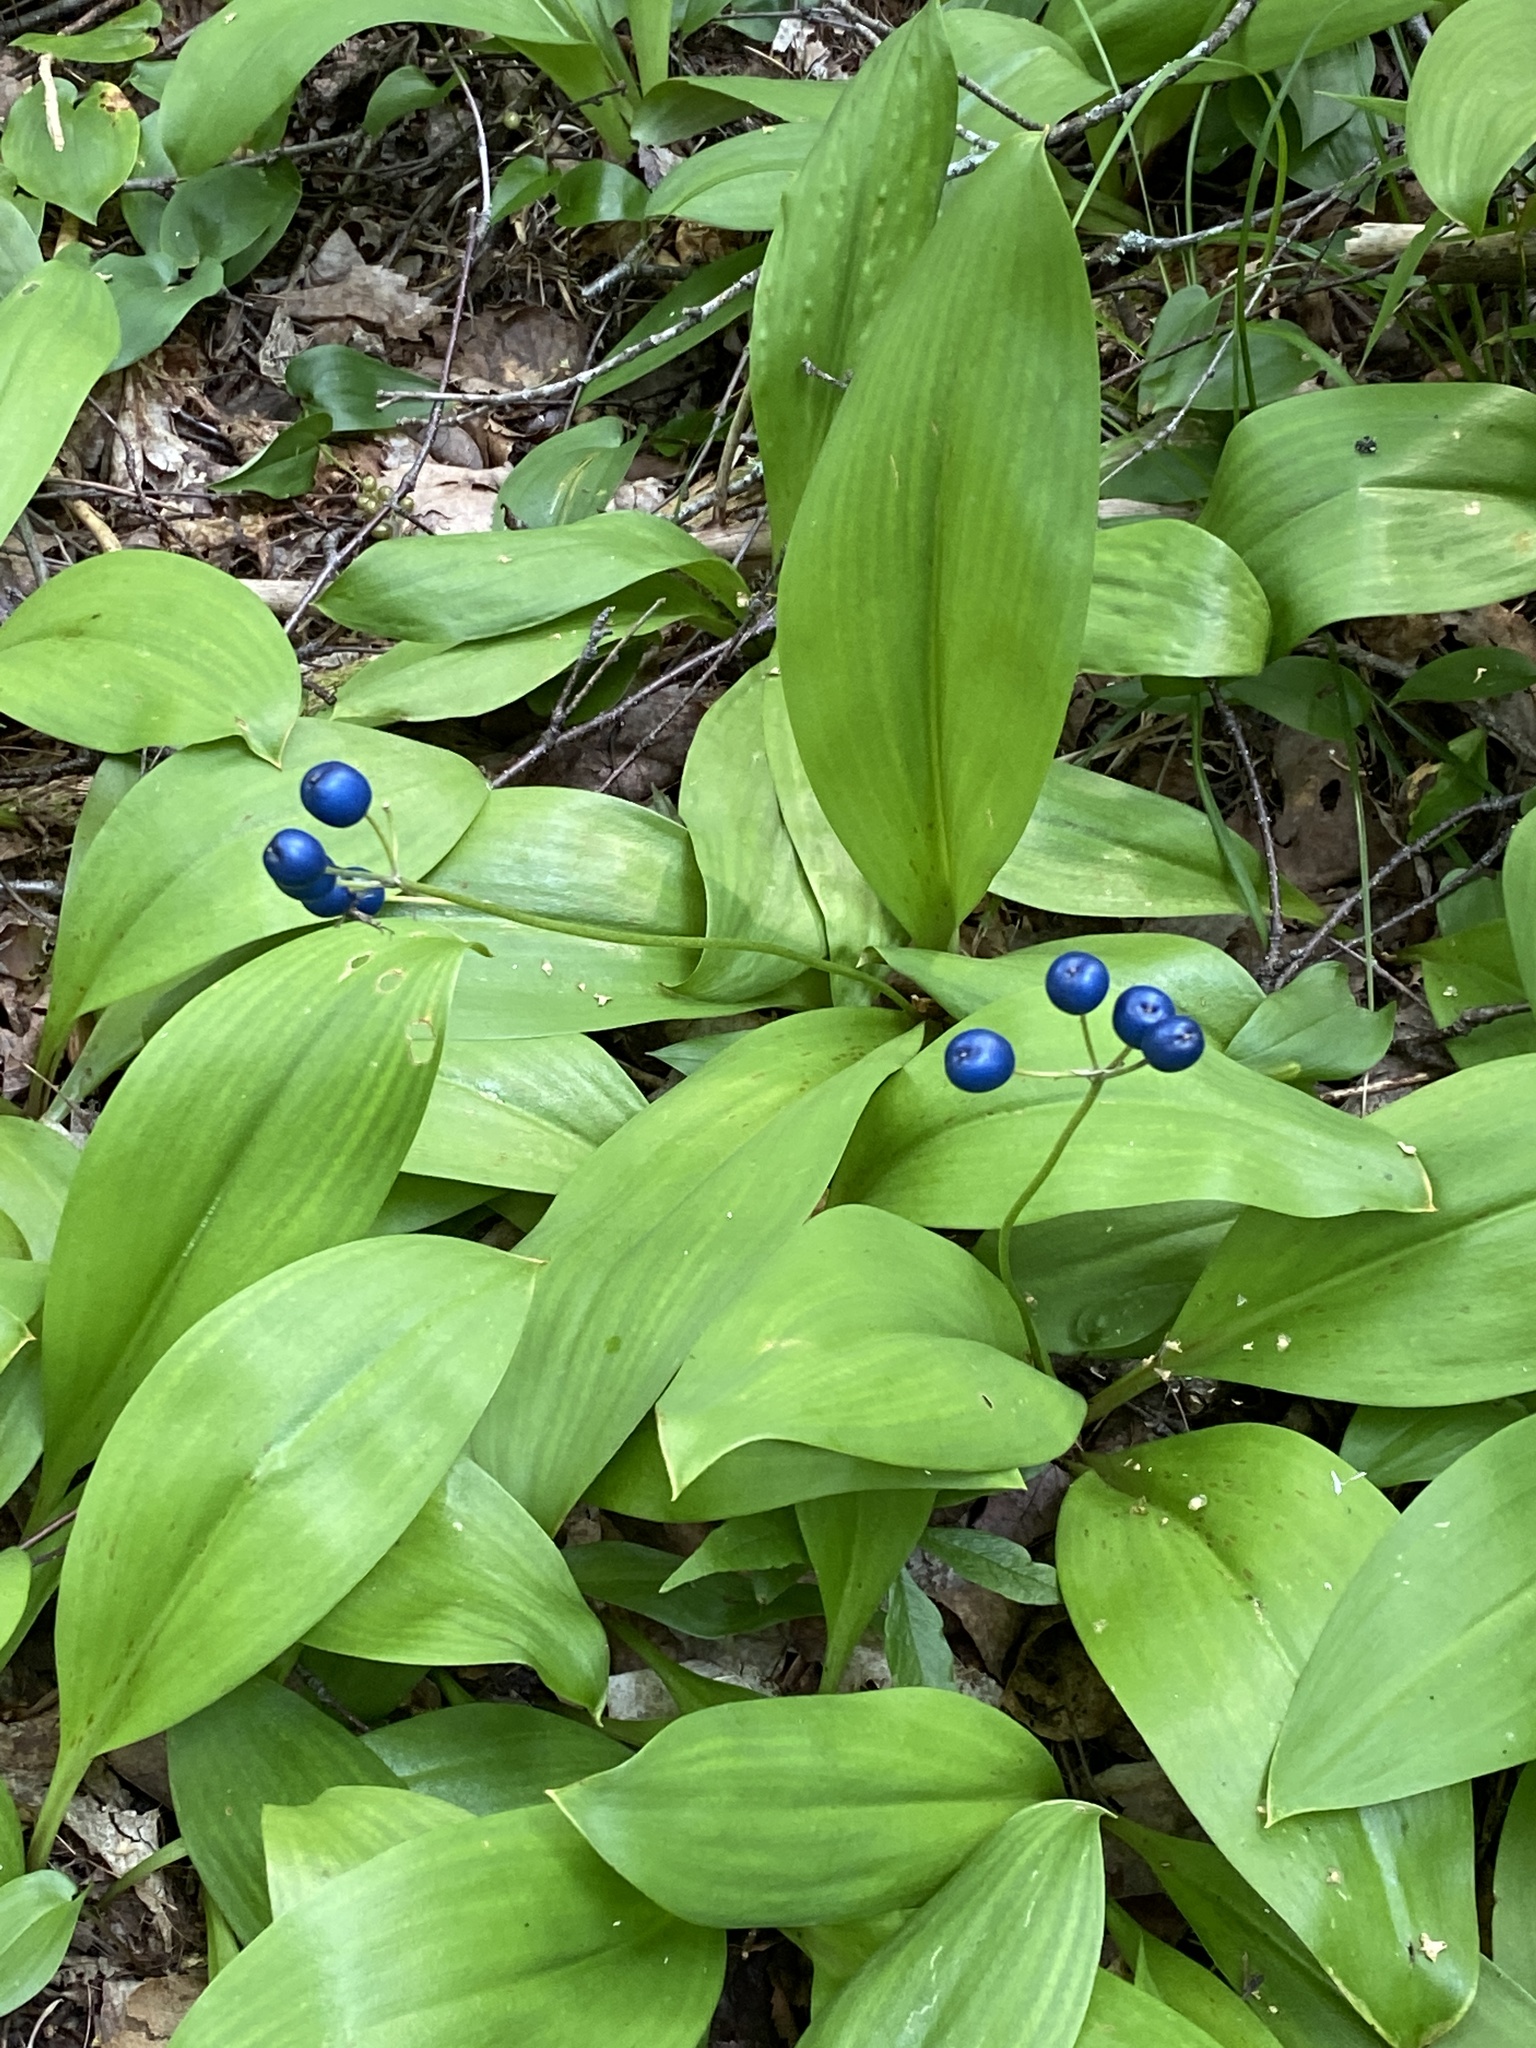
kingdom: Plantae
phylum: Tracheophyta
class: Liliopsida
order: Liliales
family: Liliaceae
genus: Clintonia
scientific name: Clintonia borealis
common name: Yellow clintonia
